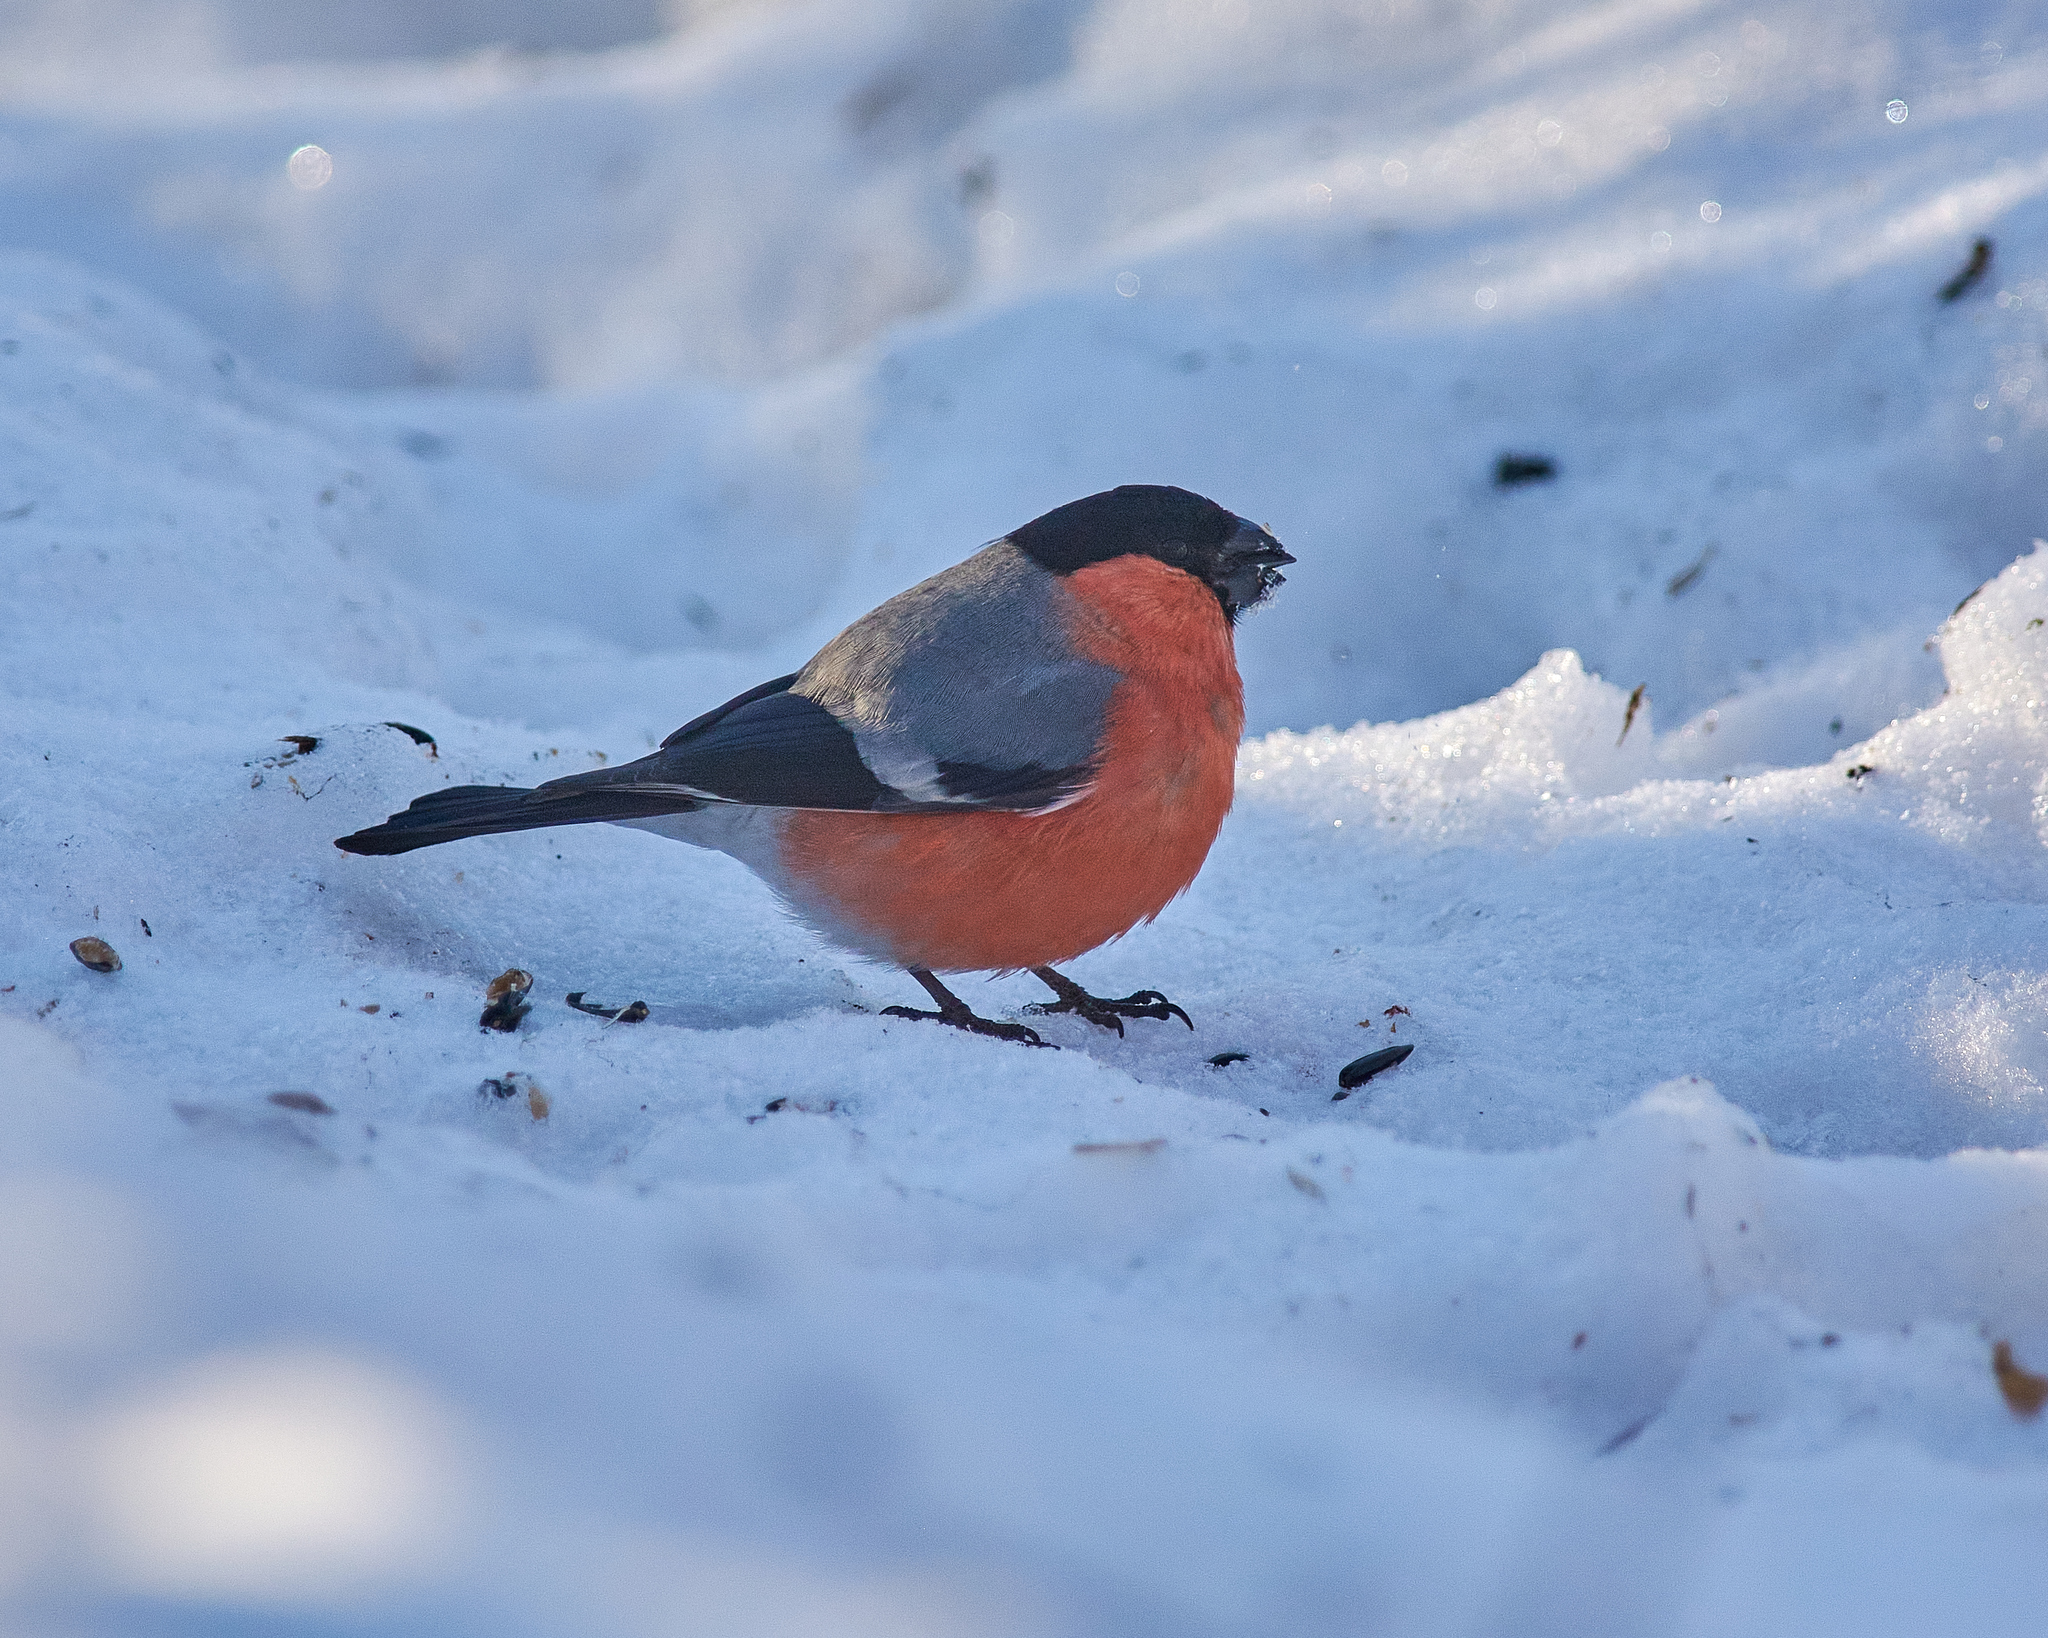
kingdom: Animalia
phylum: Chordata
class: Aves
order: Passeriformes
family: Fringillidae
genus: Pyrrhula
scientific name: Pyrrhula pyrrhula
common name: Eurasian bullfinch
